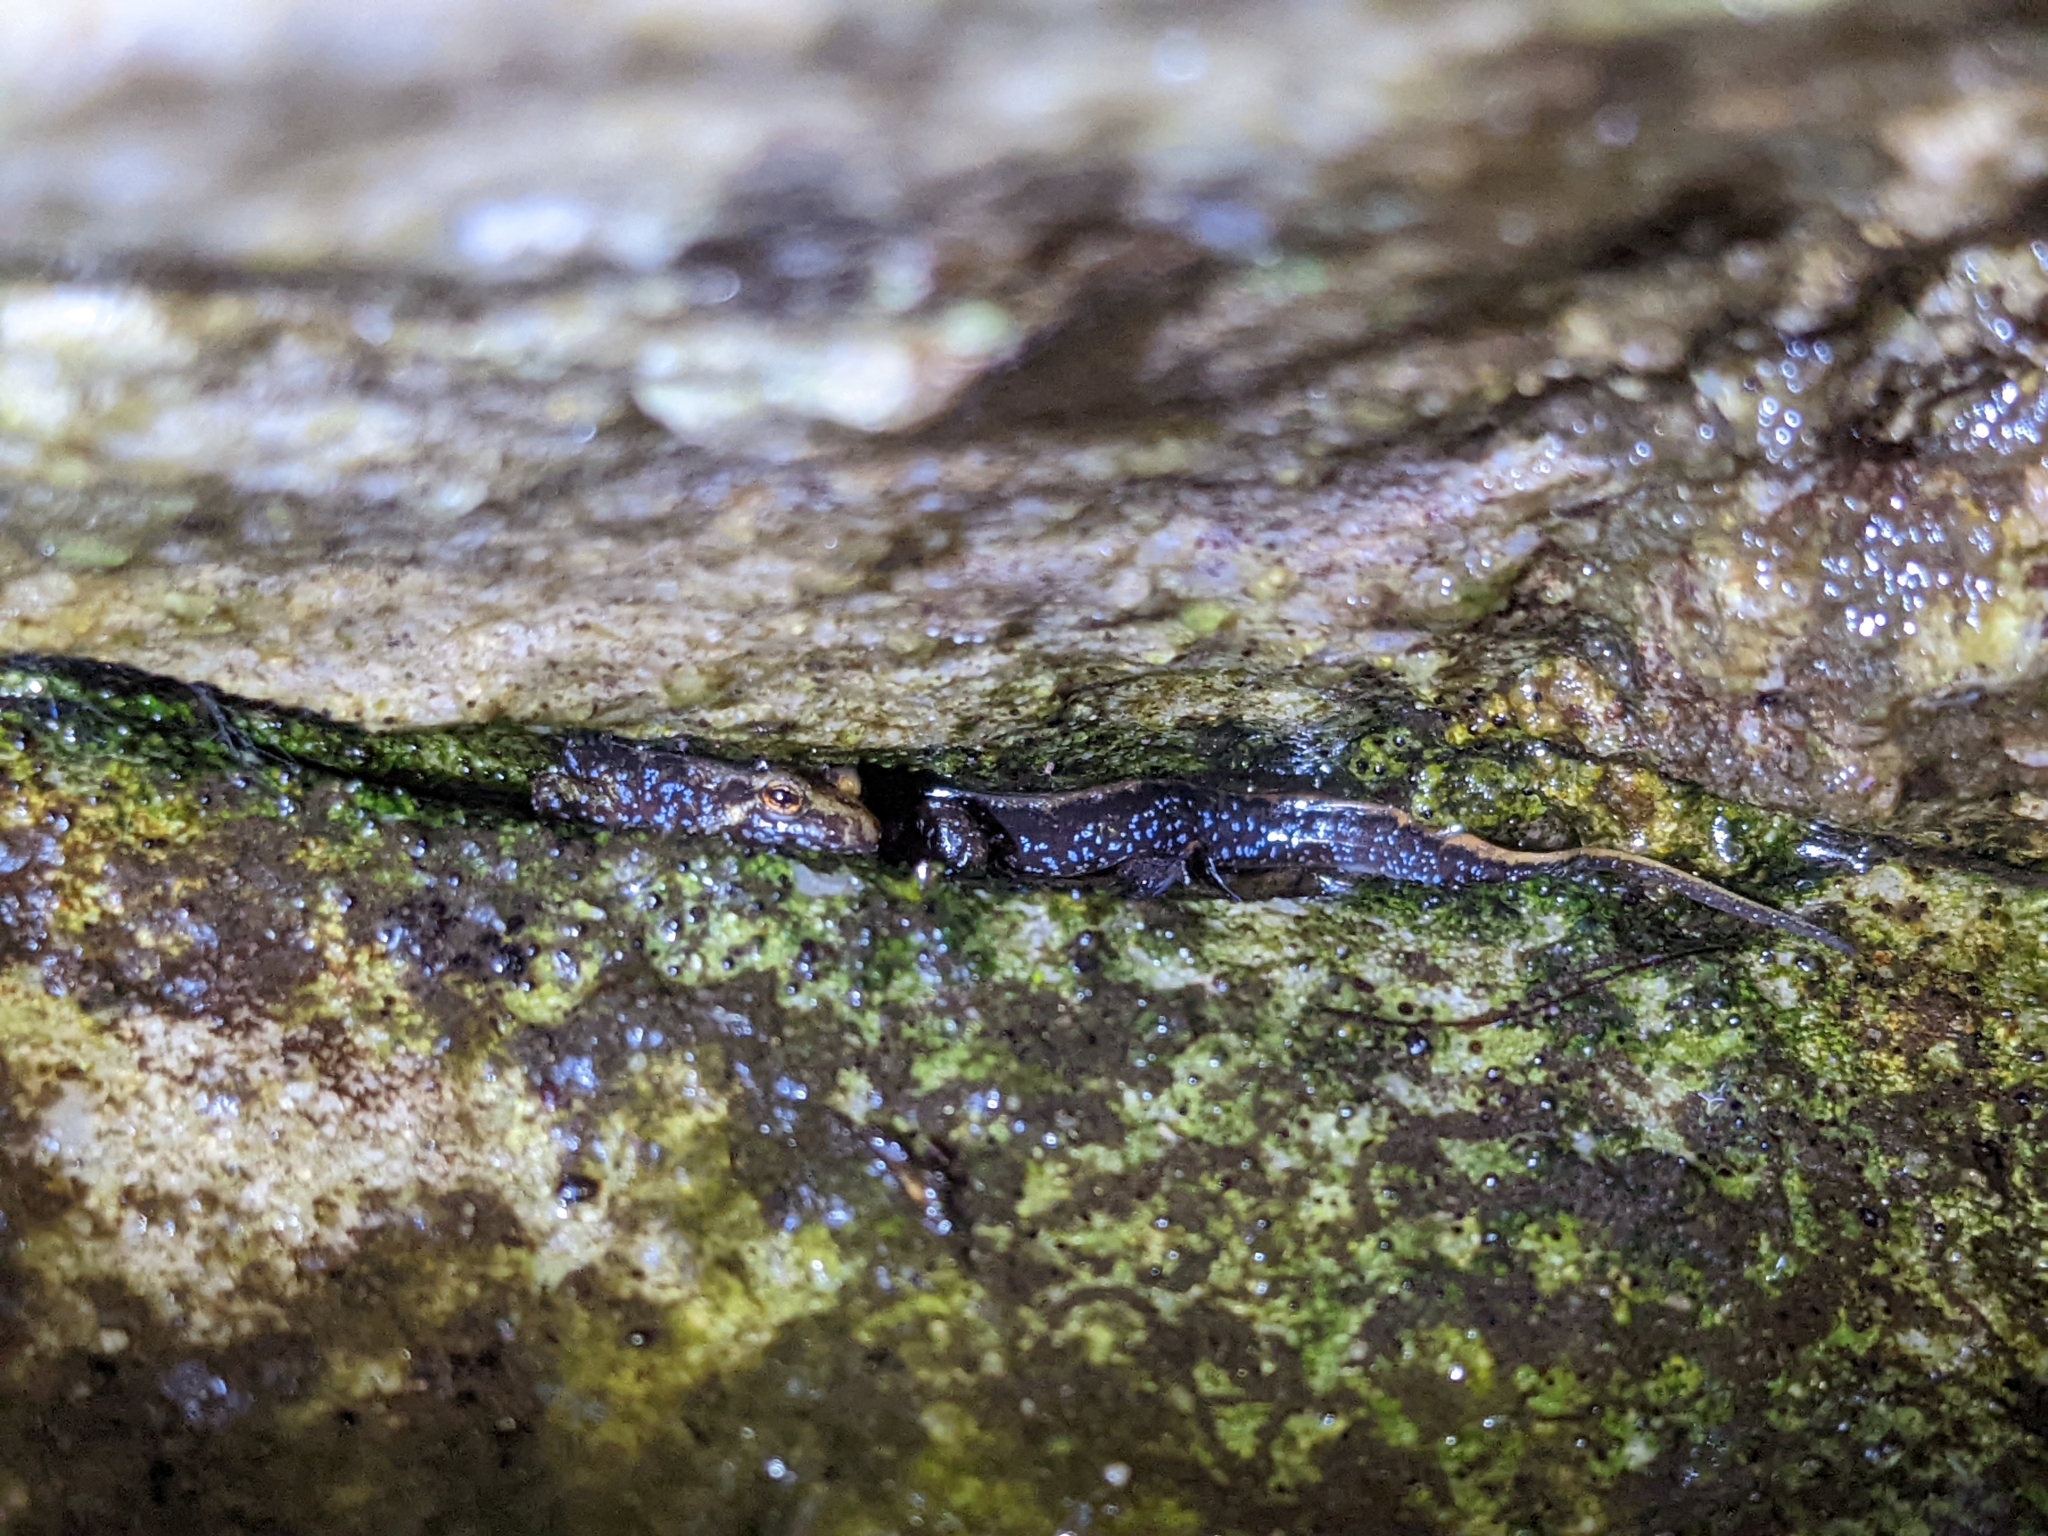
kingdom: Animalia
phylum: Chordata
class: Amphibia
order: Caudata
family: Plethodontidae
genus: Desmognathus
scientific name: Desmognathus ochrophaeus
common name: Allegheny mountain dusky salamander
